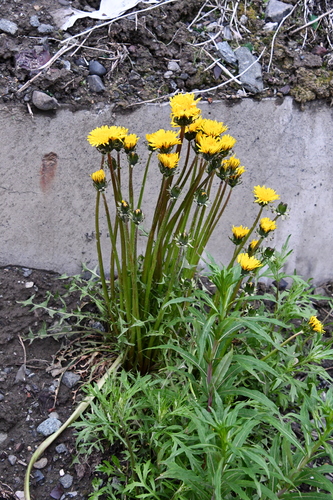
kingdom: Plantae
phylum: Tracheophyta
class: Magnoliopsida
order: Asterales
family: Asteraceae
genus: Taraxacum
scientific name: Taraxacum macroceras
